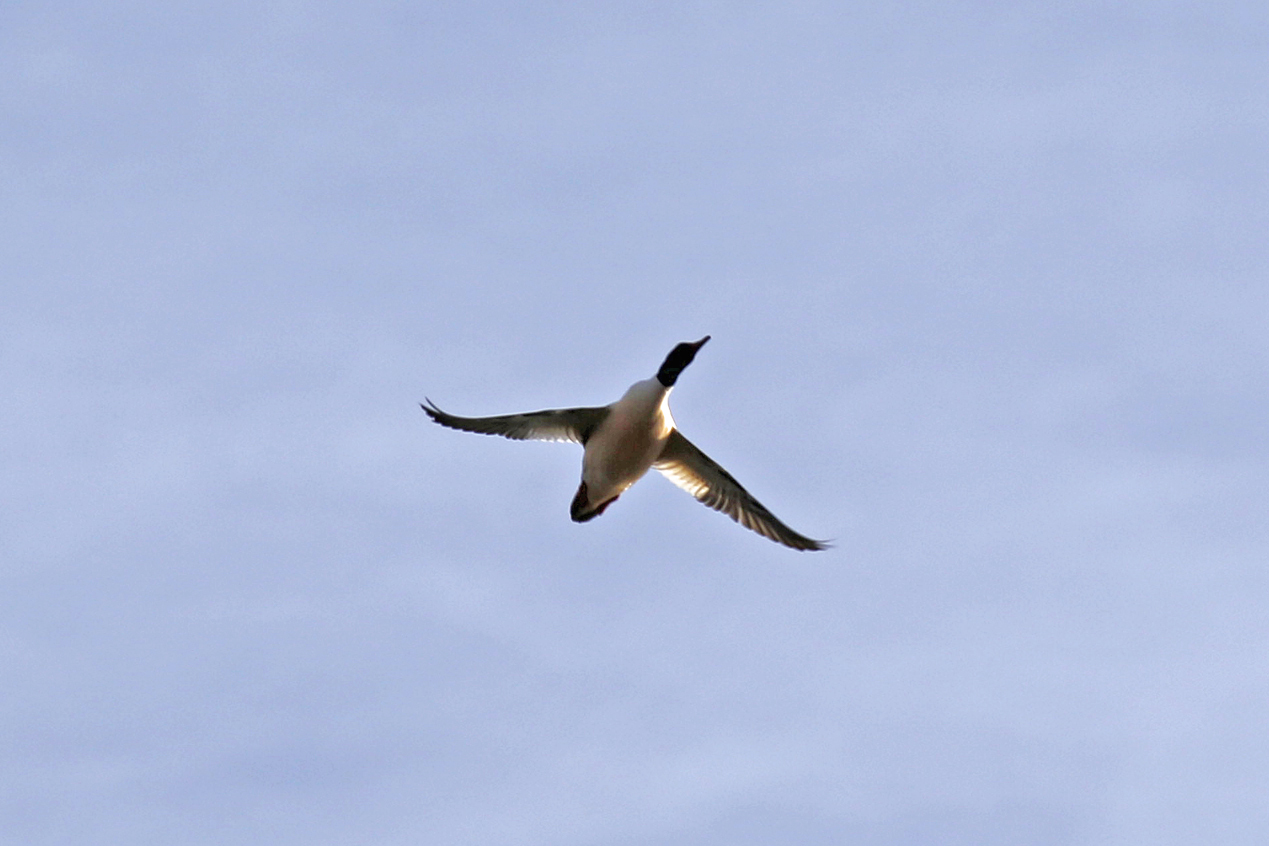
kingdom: Animalia
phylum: Chordata
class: Aves
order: Anseriformes
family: Anatidae
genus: Mergus
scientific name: Mergus merganser
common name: Common merganser
